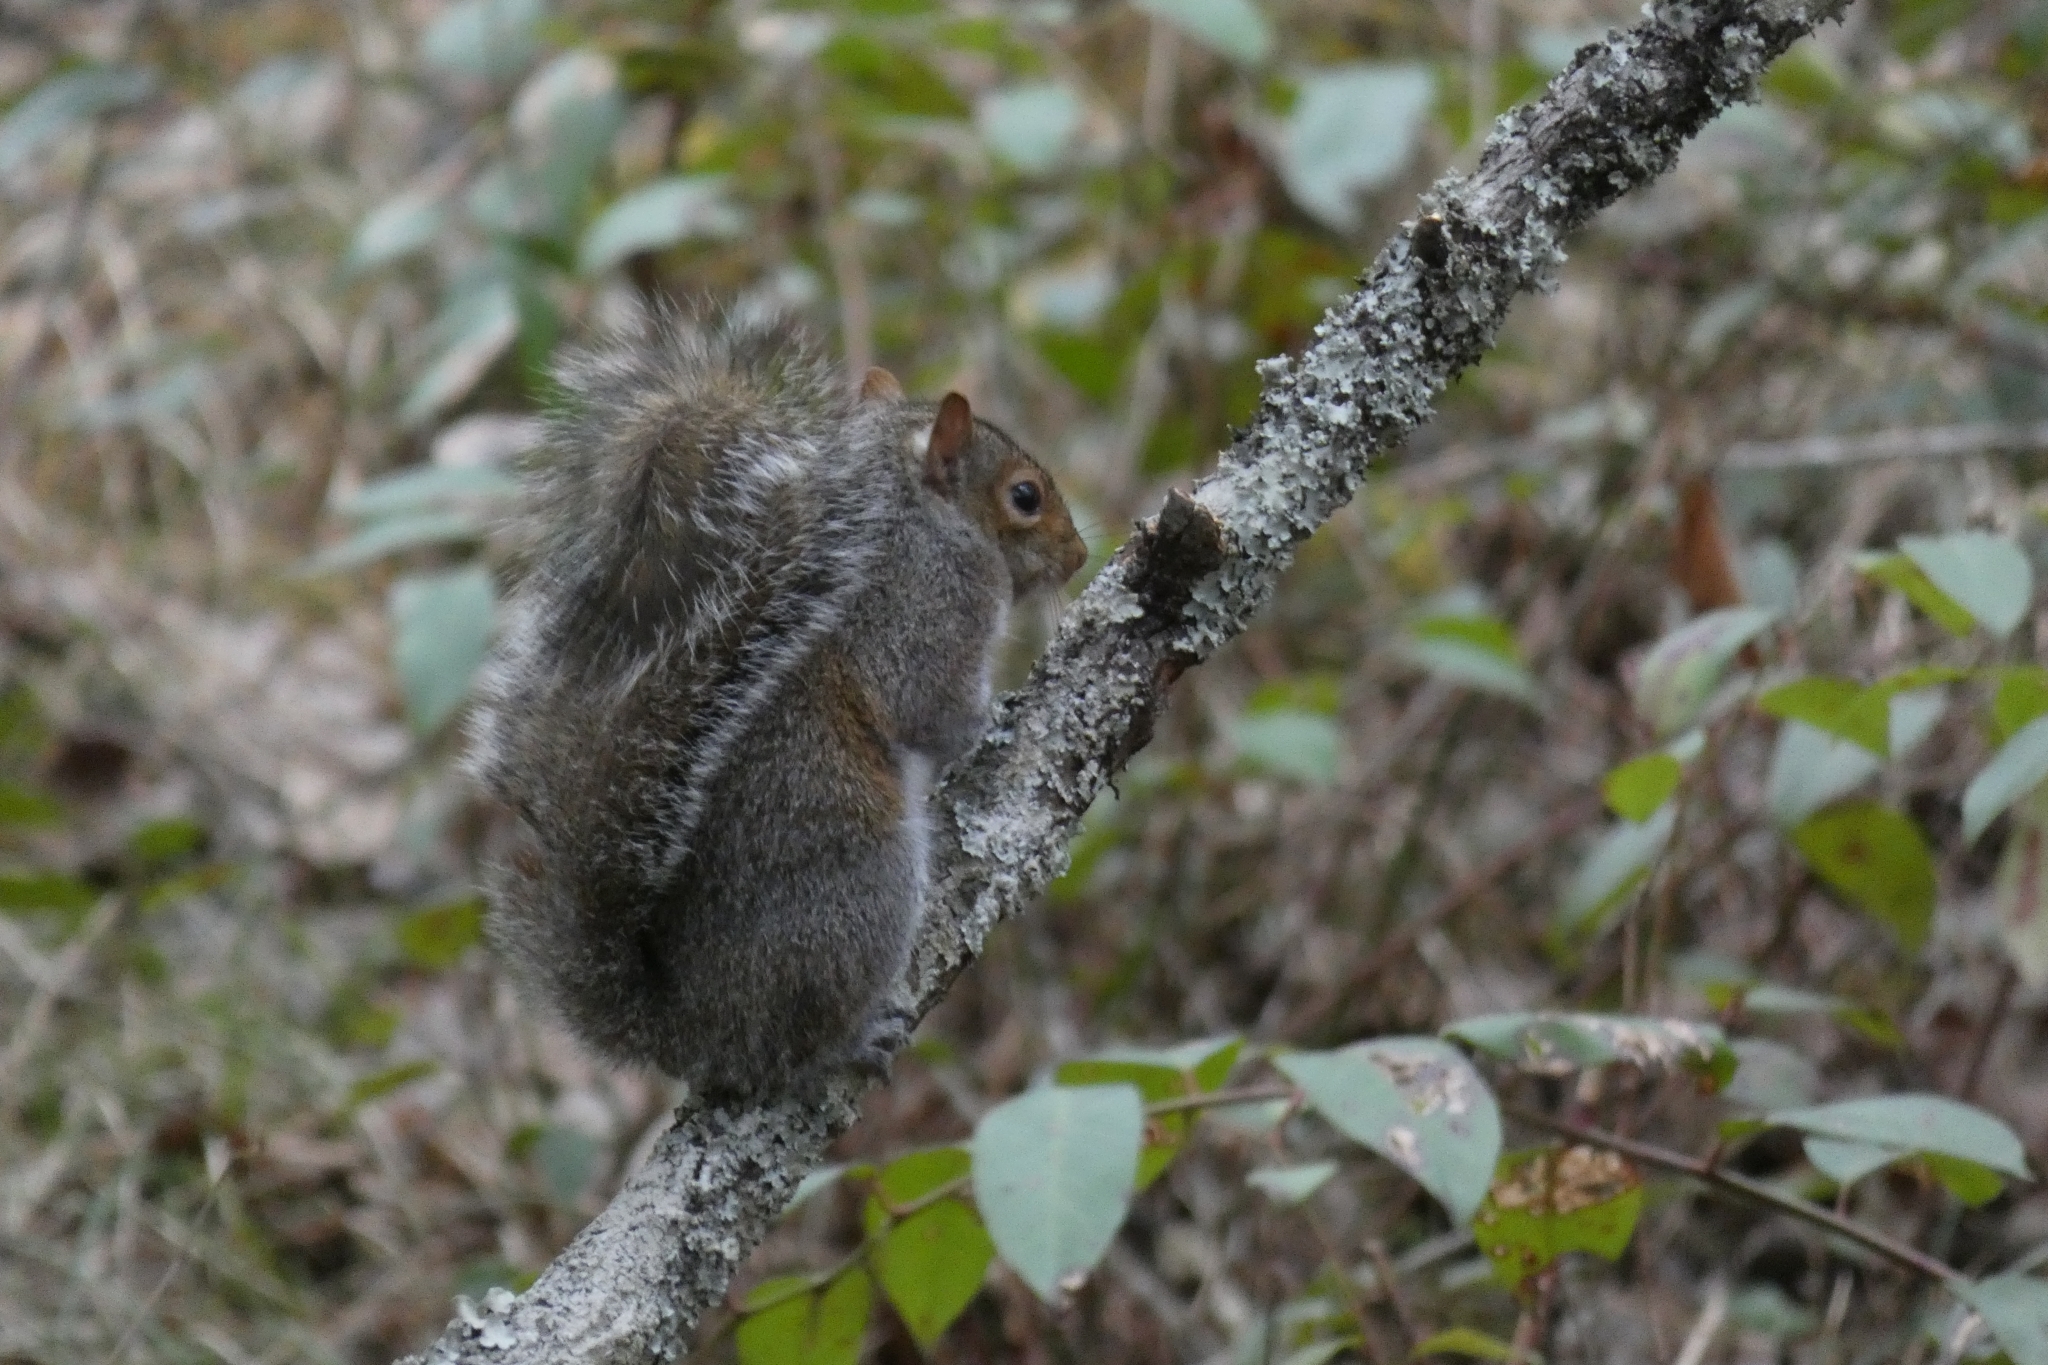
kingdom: Animalia
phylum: Chordata
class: Mammalia
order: Rodentia
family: Sciuridae
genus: Sciurus
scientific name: Sciurus carolinensis
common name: Eastern gray squirrel
